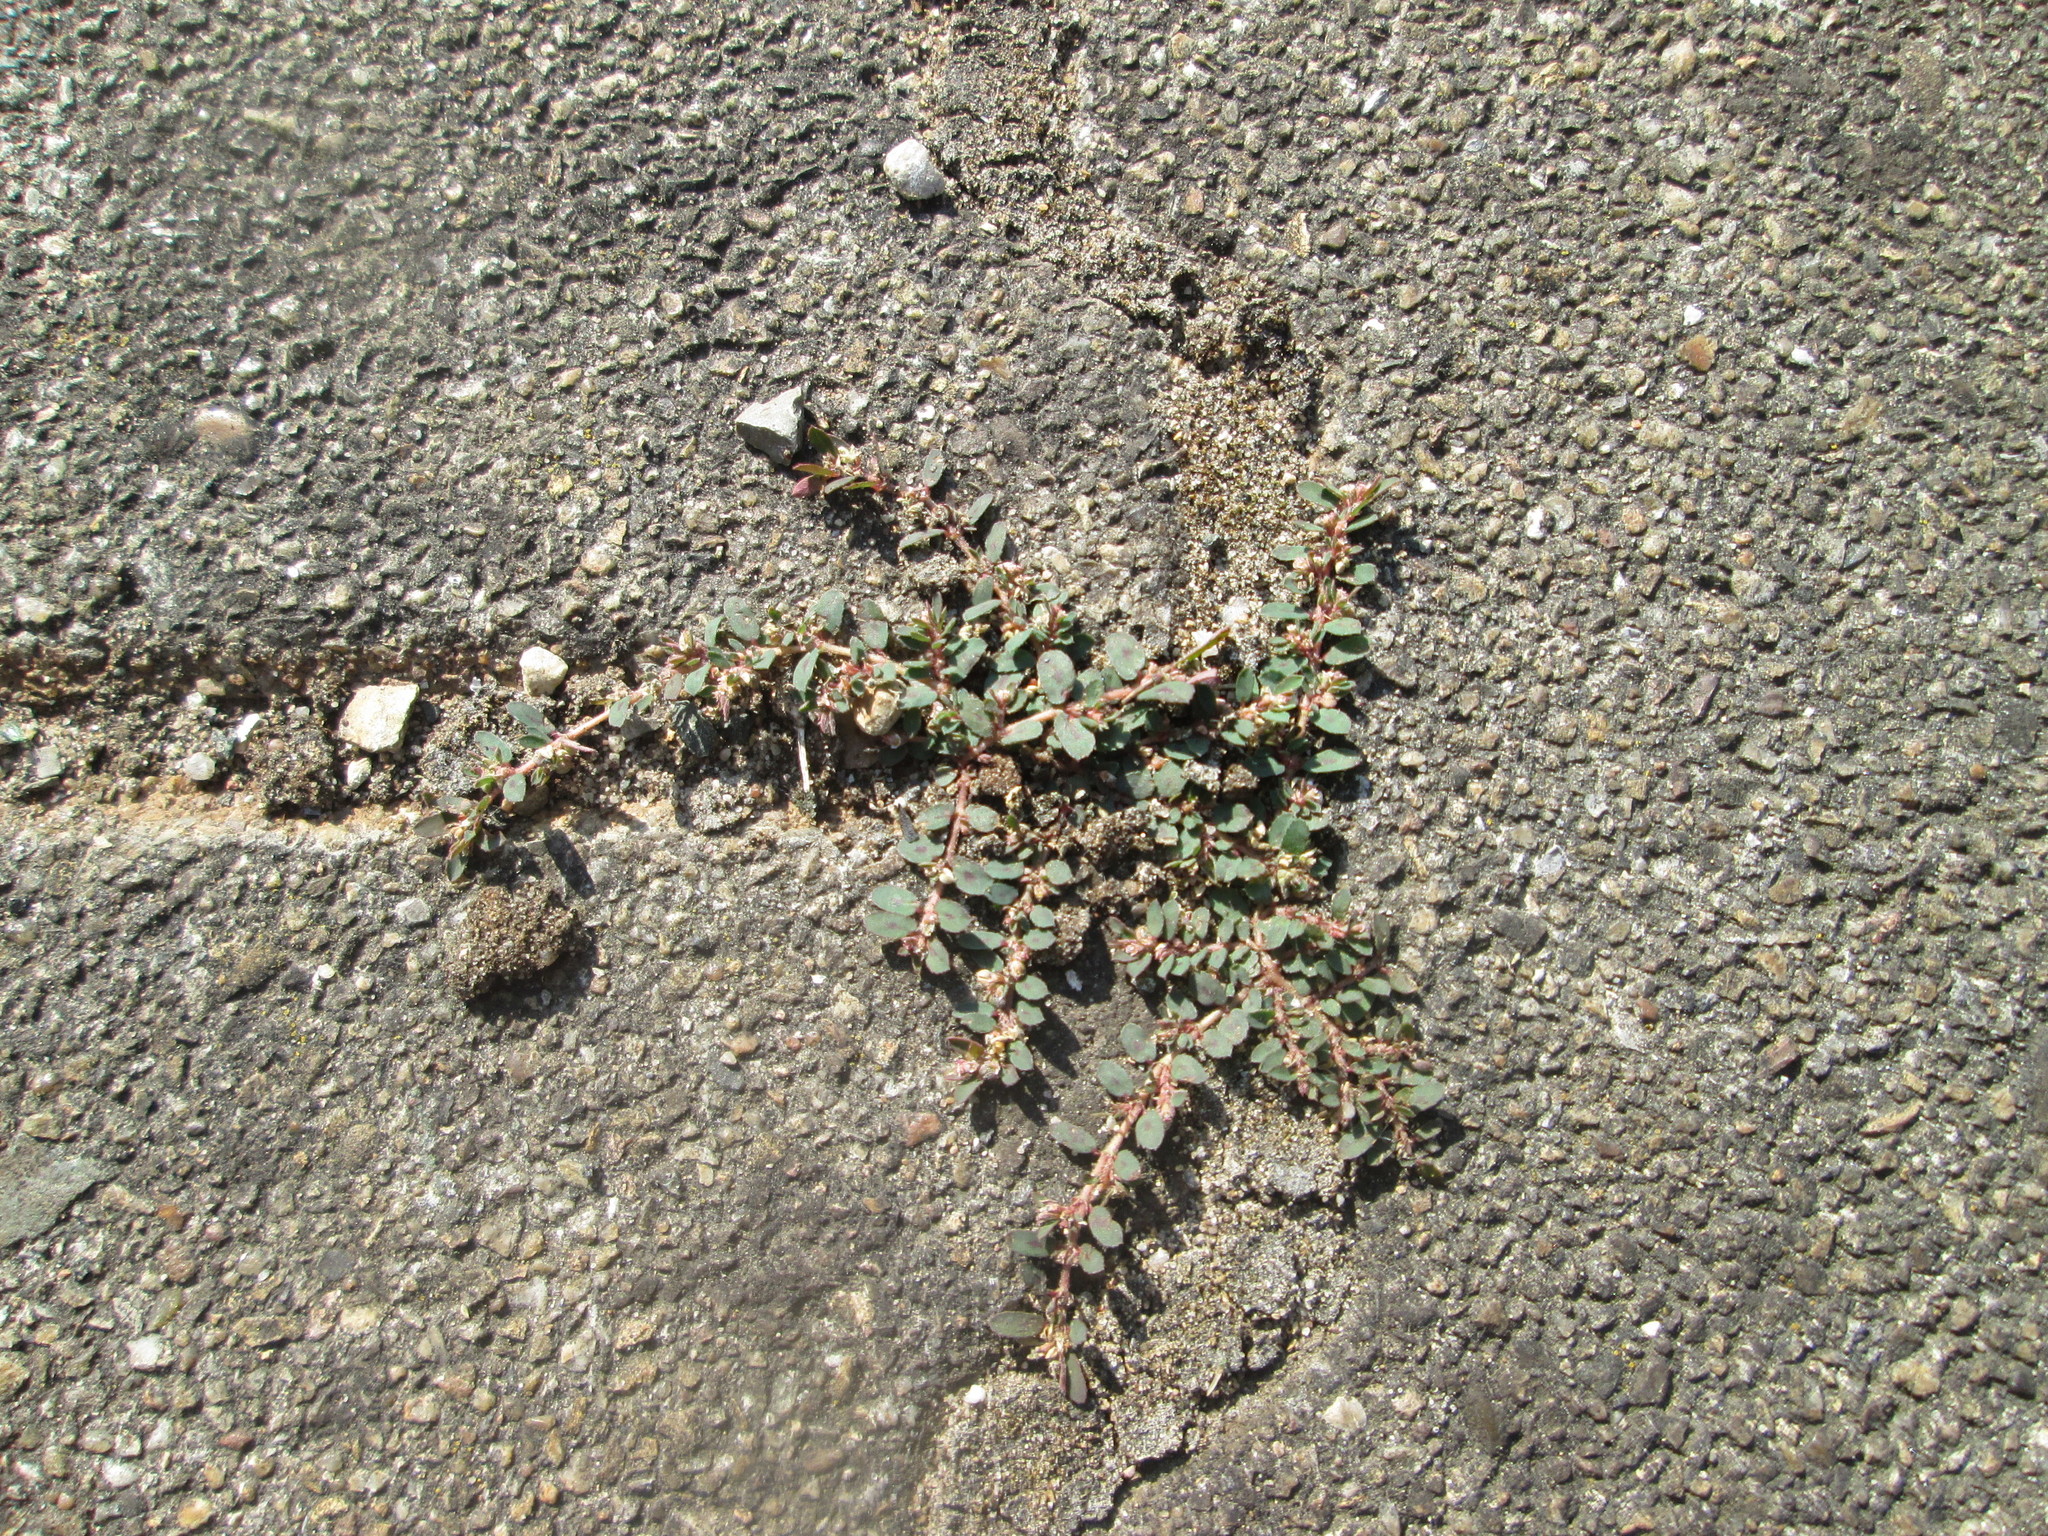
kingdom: Plantae
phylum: Tracheophyta
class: Magnoliopsida
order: Malpighiales
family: Euphorbiaceae
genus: Euphorbia
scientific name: Euphorbia maculata
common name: Spotted spurge
